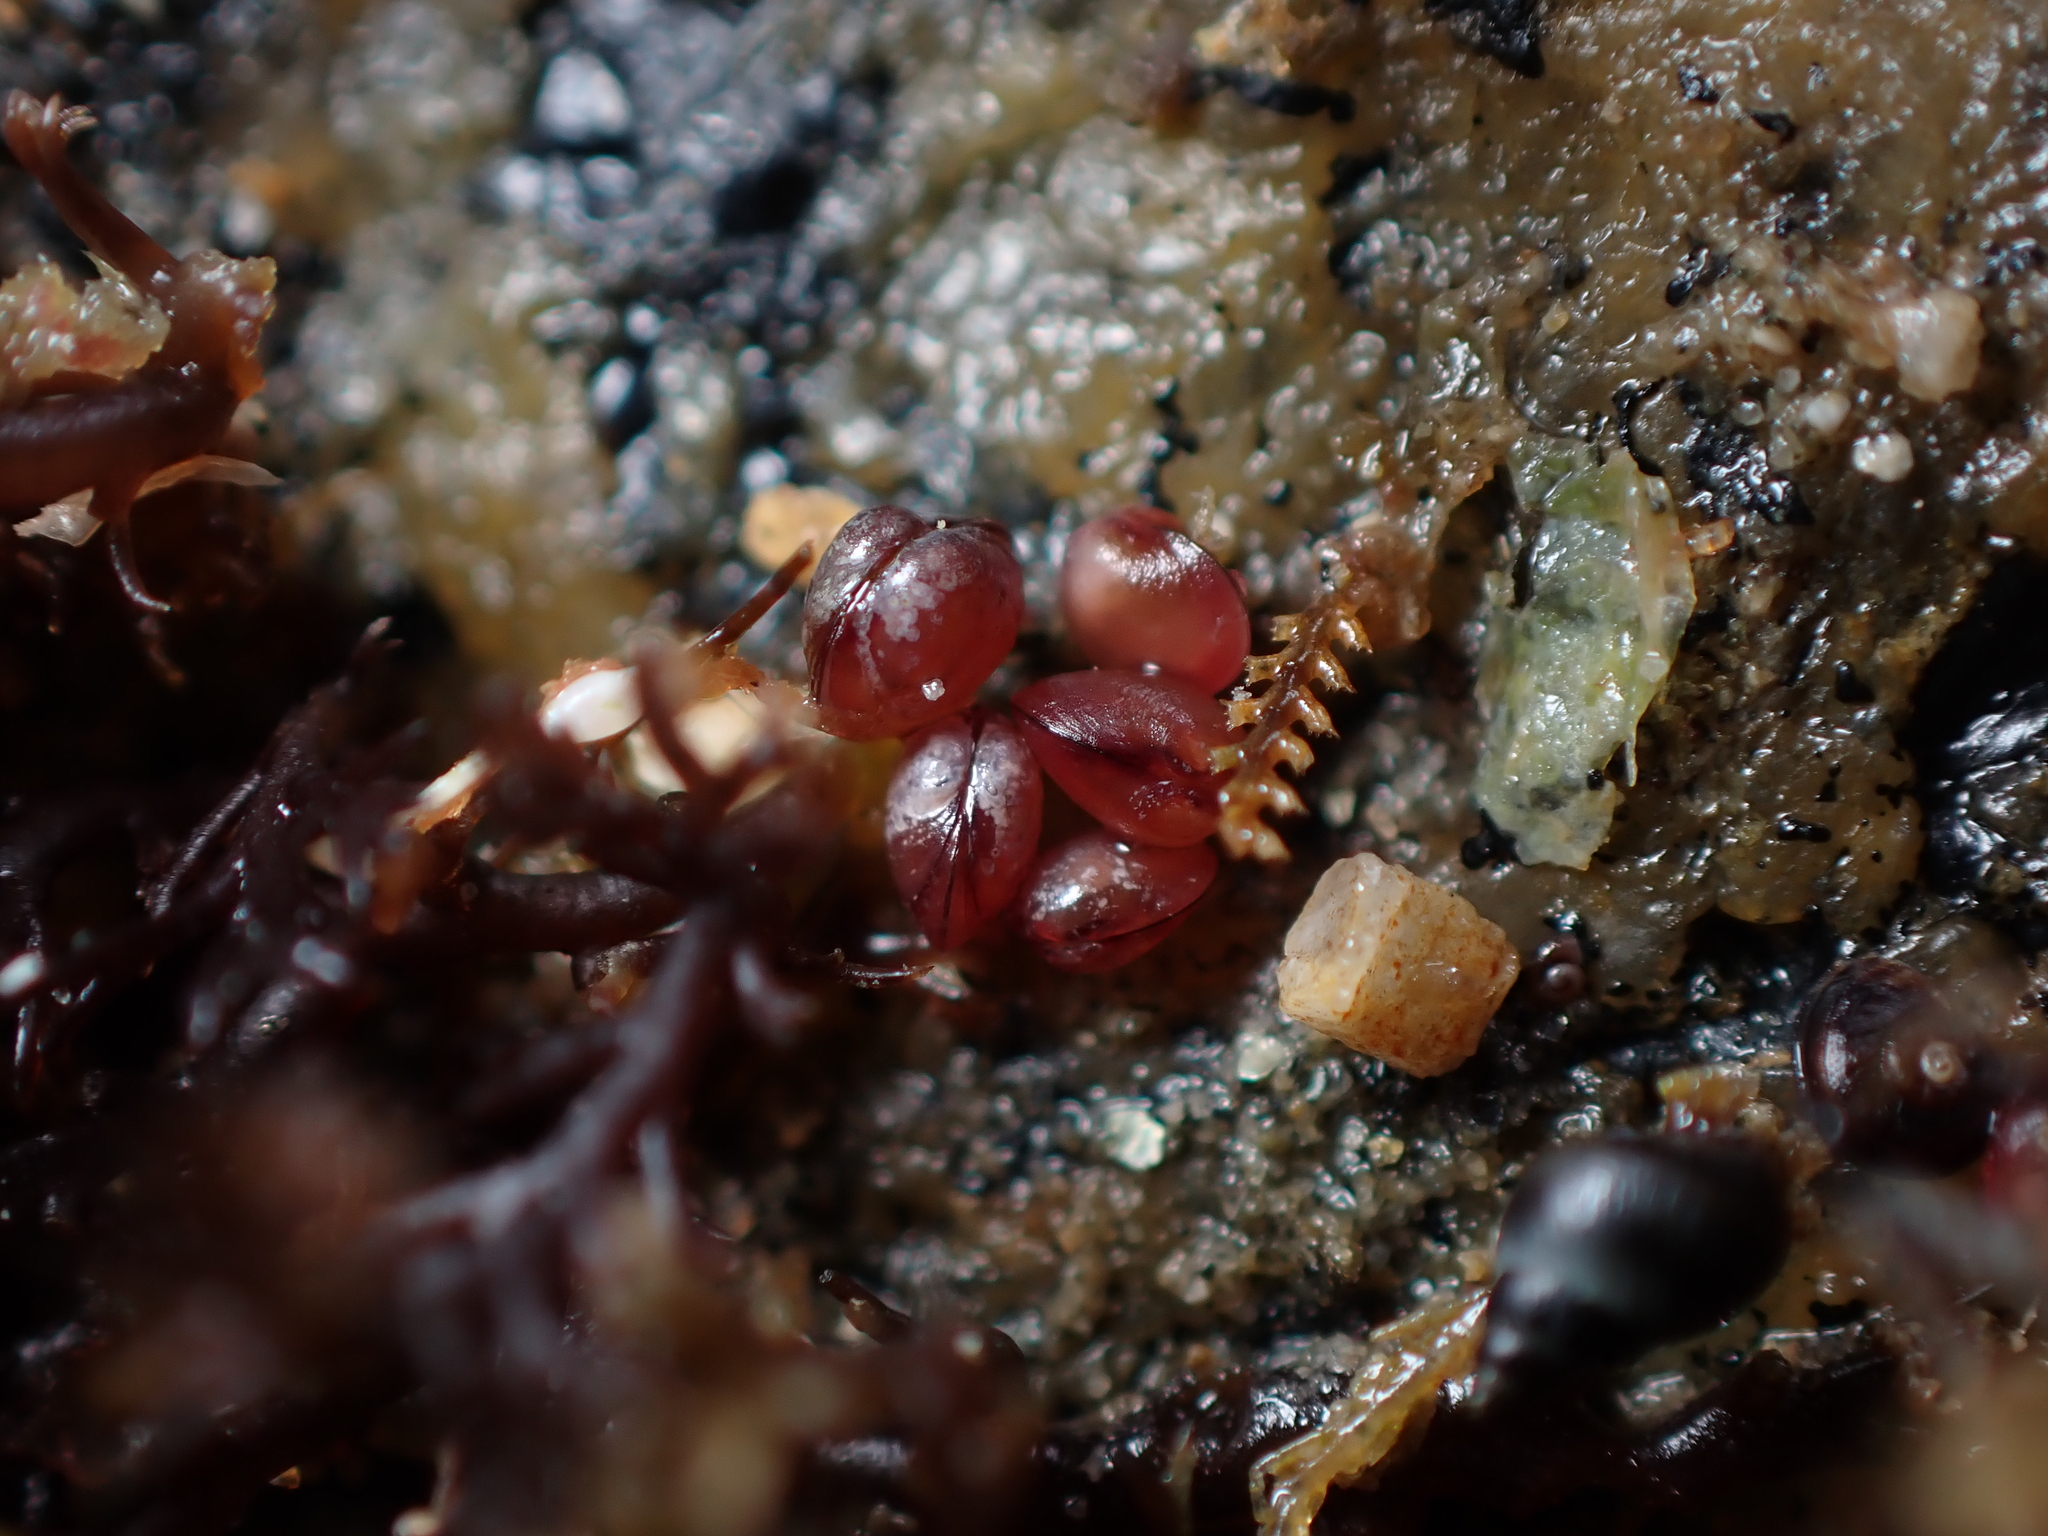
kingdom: Animalia
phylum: Mollusca
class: Bivalvia
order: Galeommatida
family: Lasaeidae
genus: Lasaea
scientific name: Lasaea hinemoa
